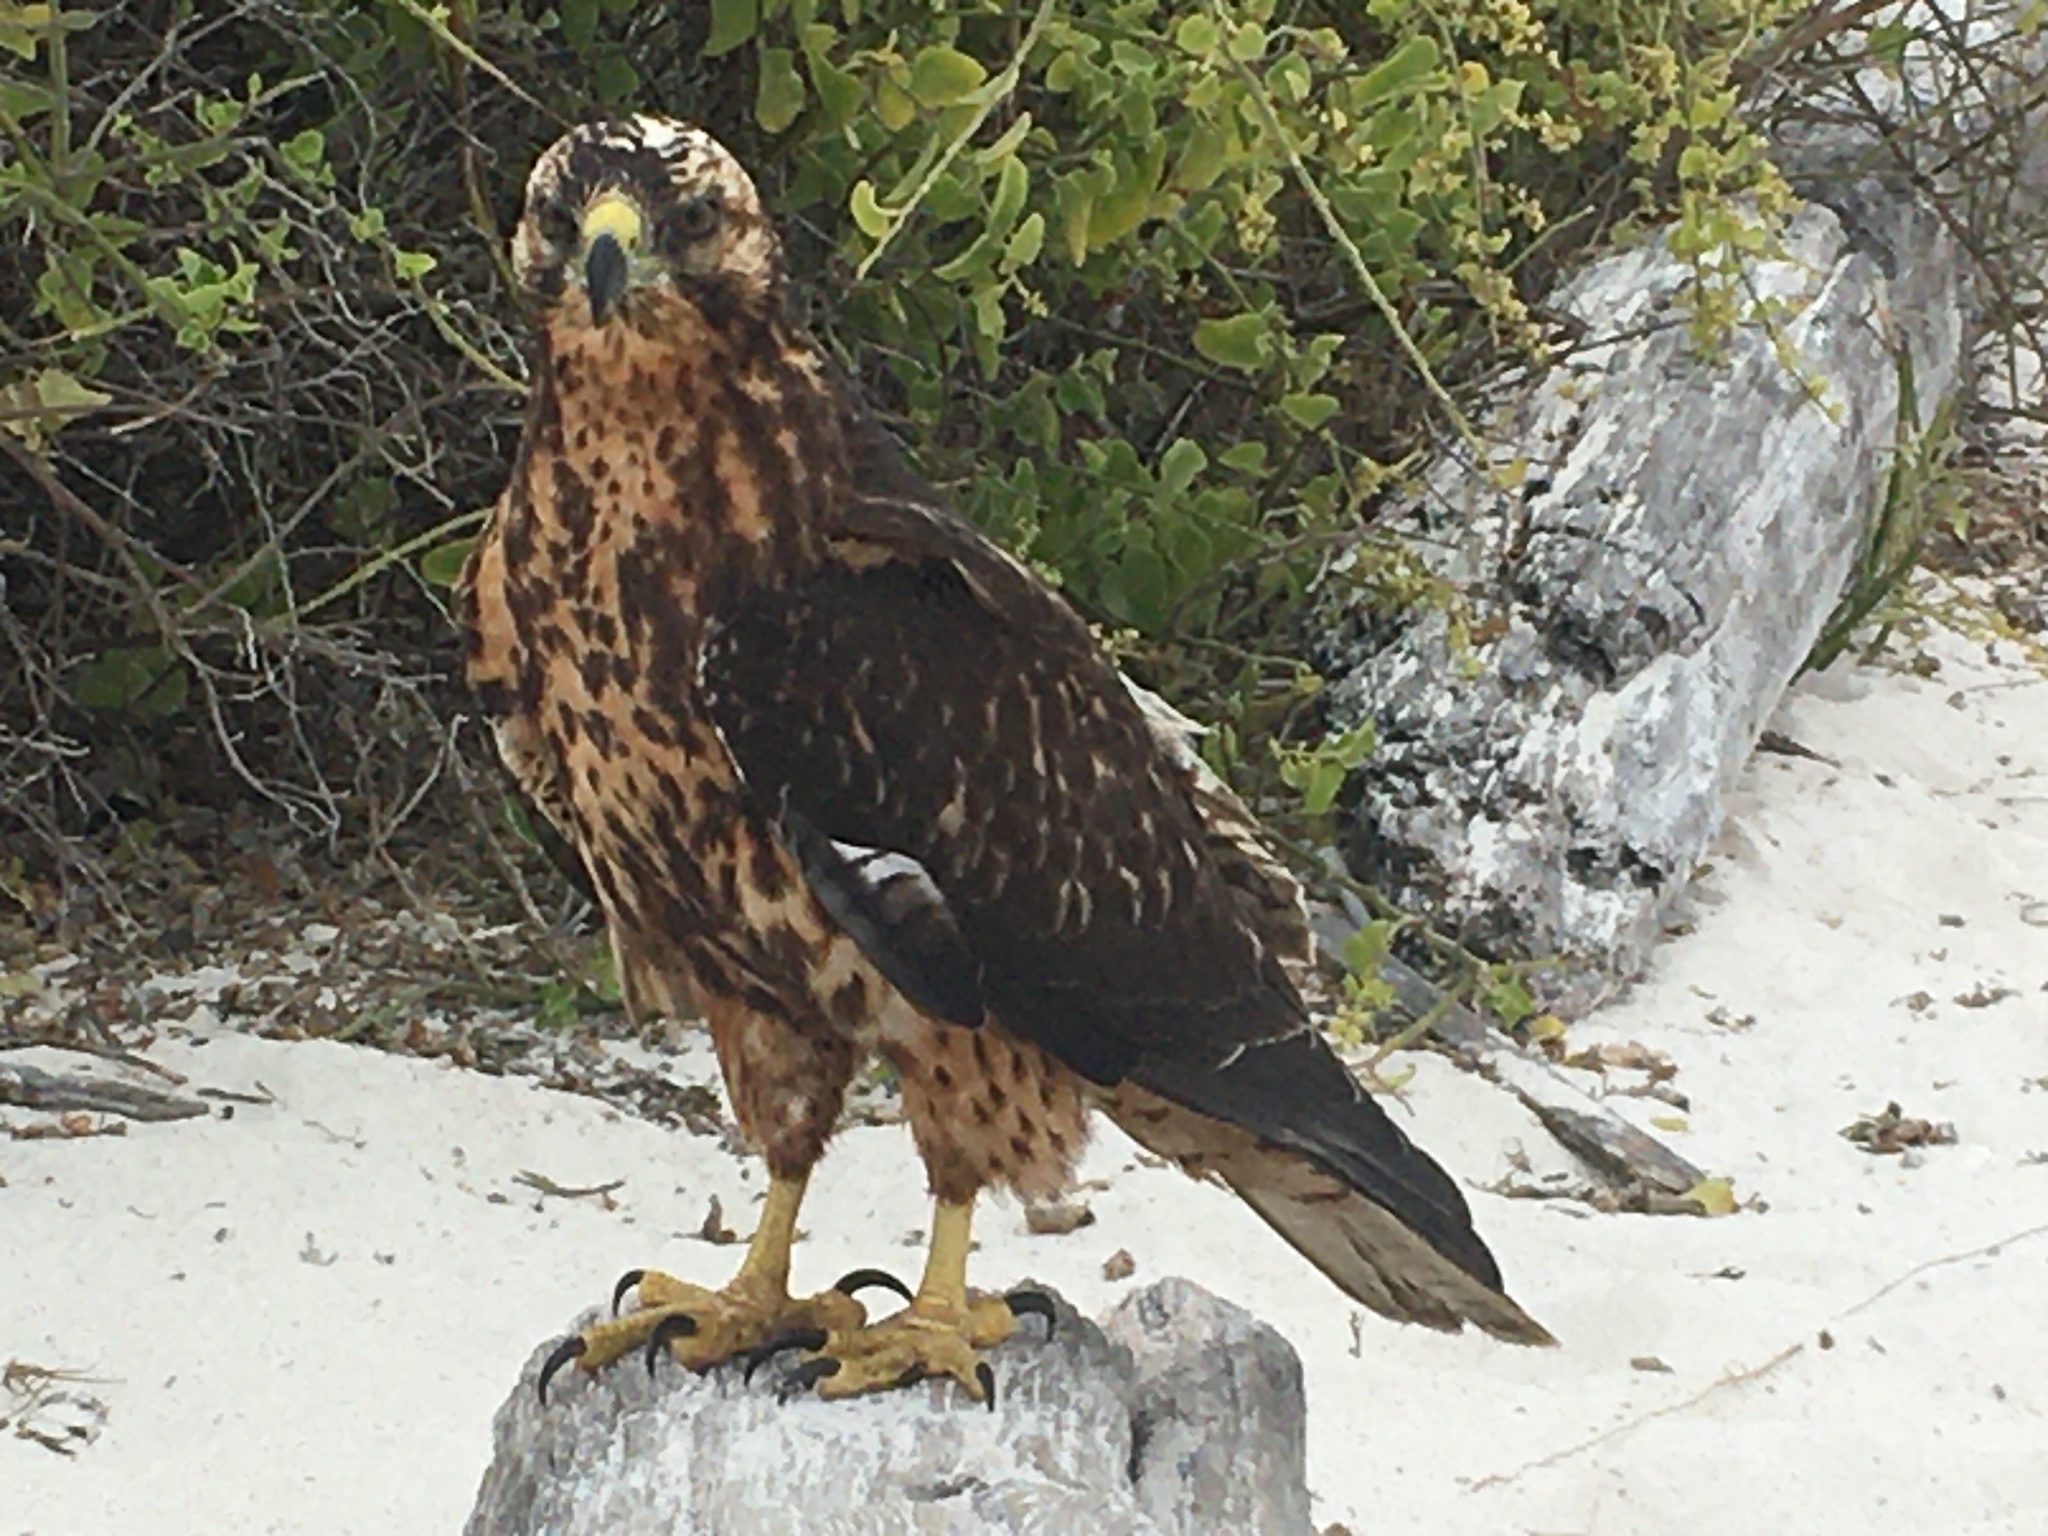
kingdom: Animalia
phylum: Chordata
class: Aves
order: Accipitriformes
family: Accipitridae
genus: Buteo
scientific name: Buteo galapagoensis
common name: Galapagos hawk
